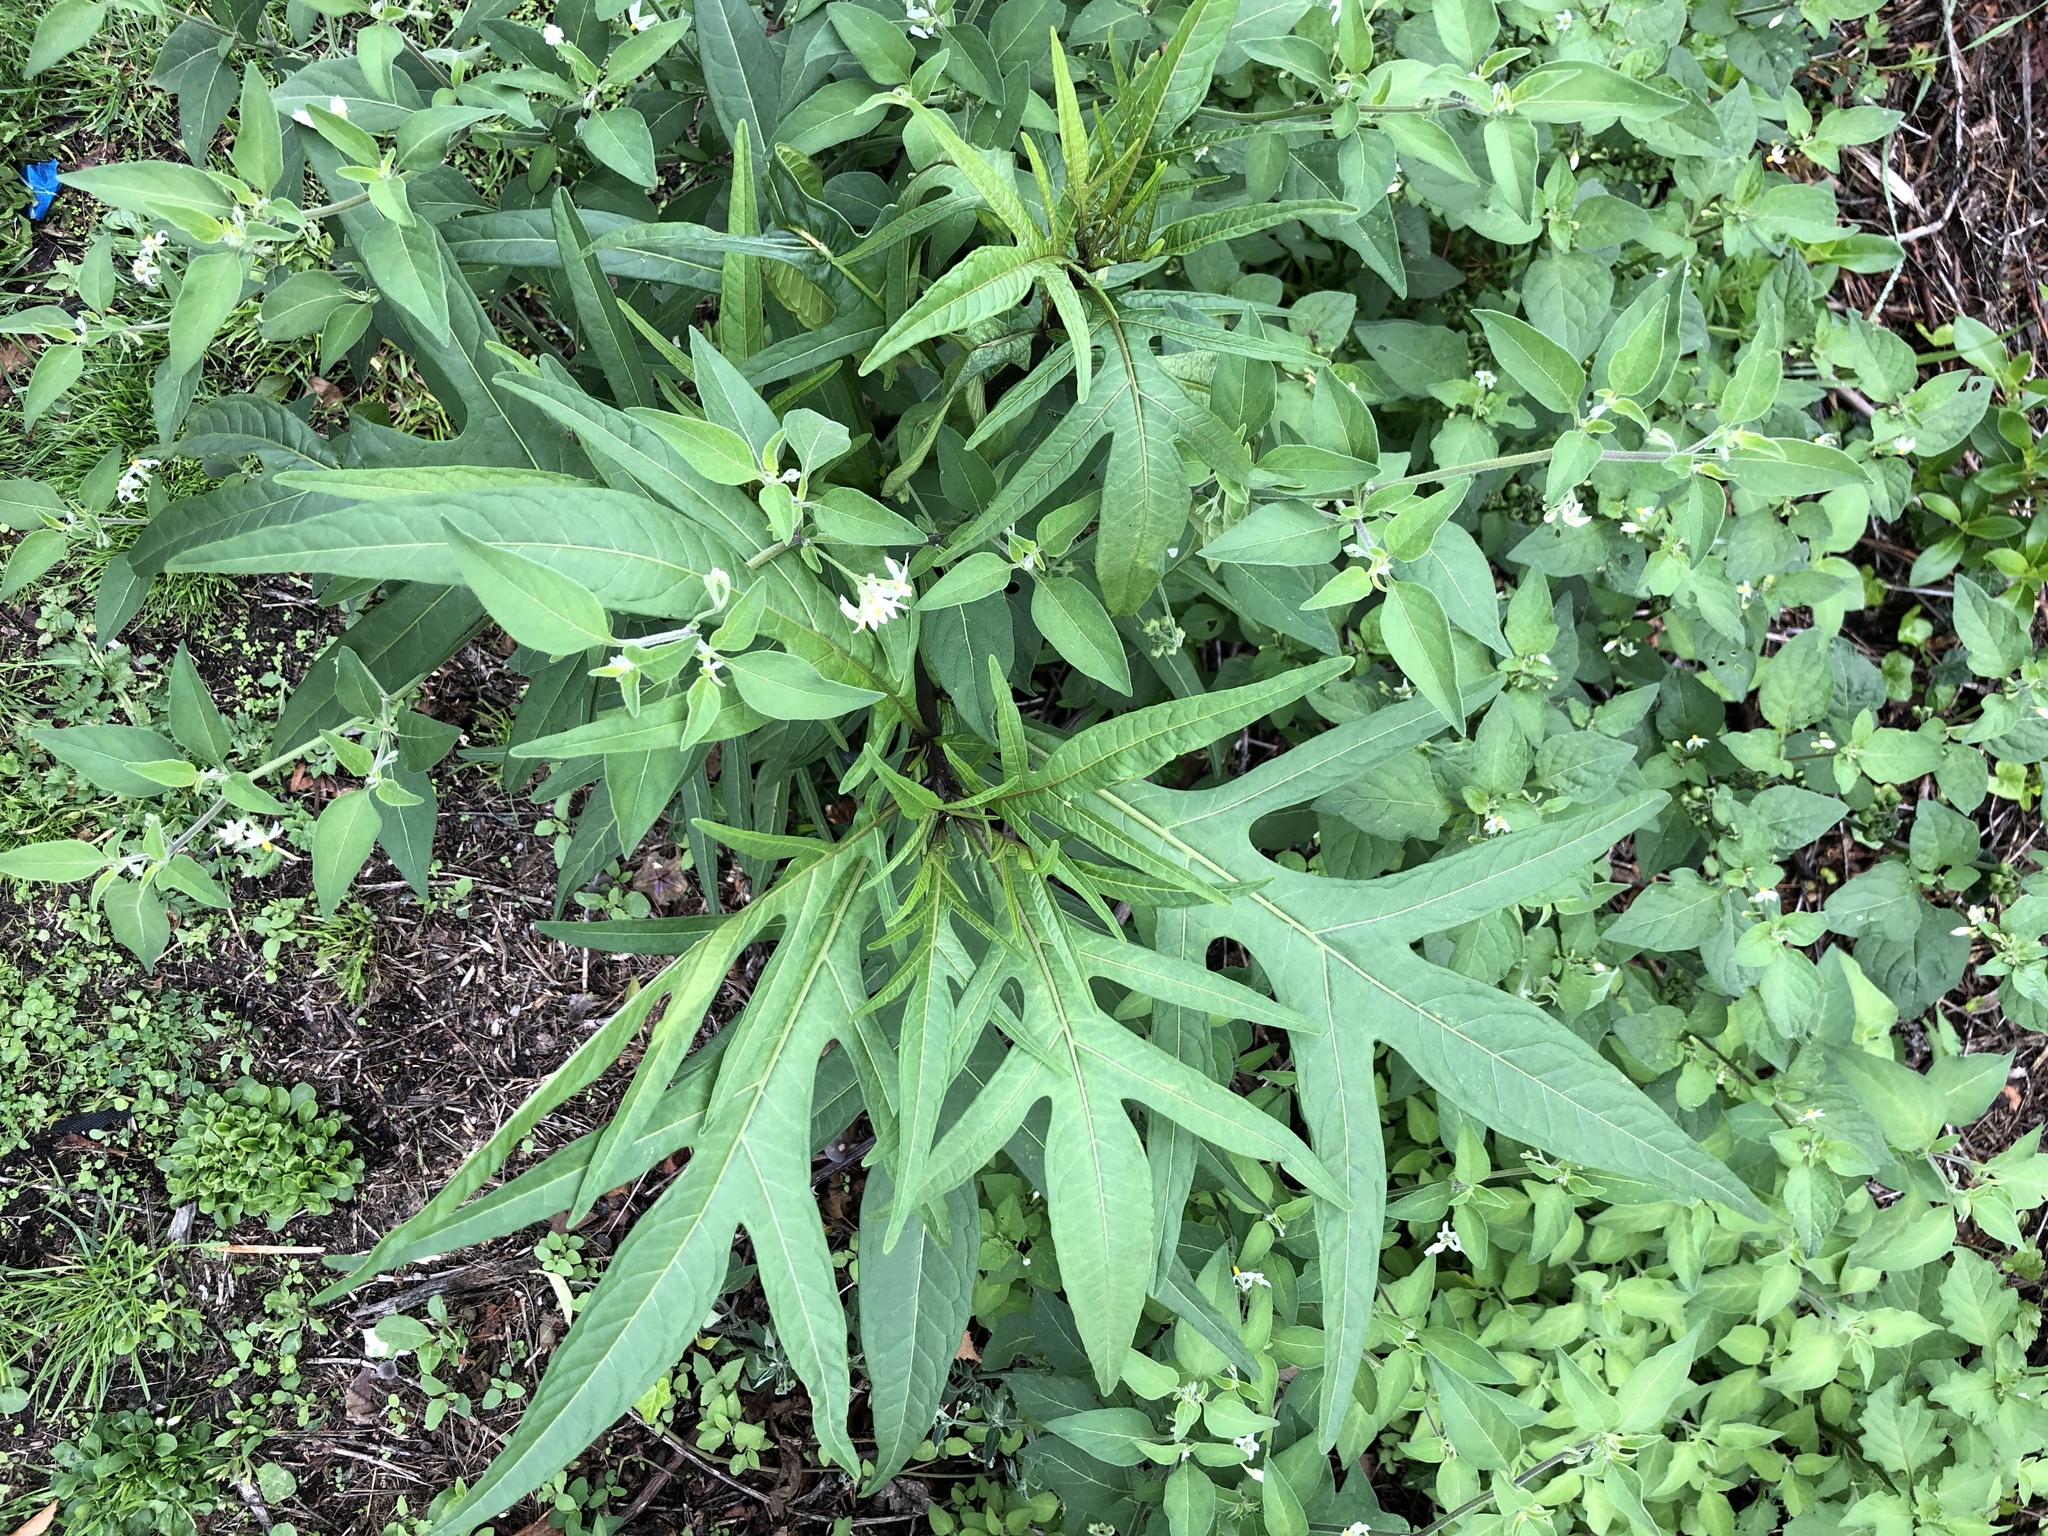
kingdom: Plantae
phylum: Tracheophyta
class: Magnoliopsida
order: Solanales
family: Solanaceae
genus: Solanum
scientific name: Solanum
